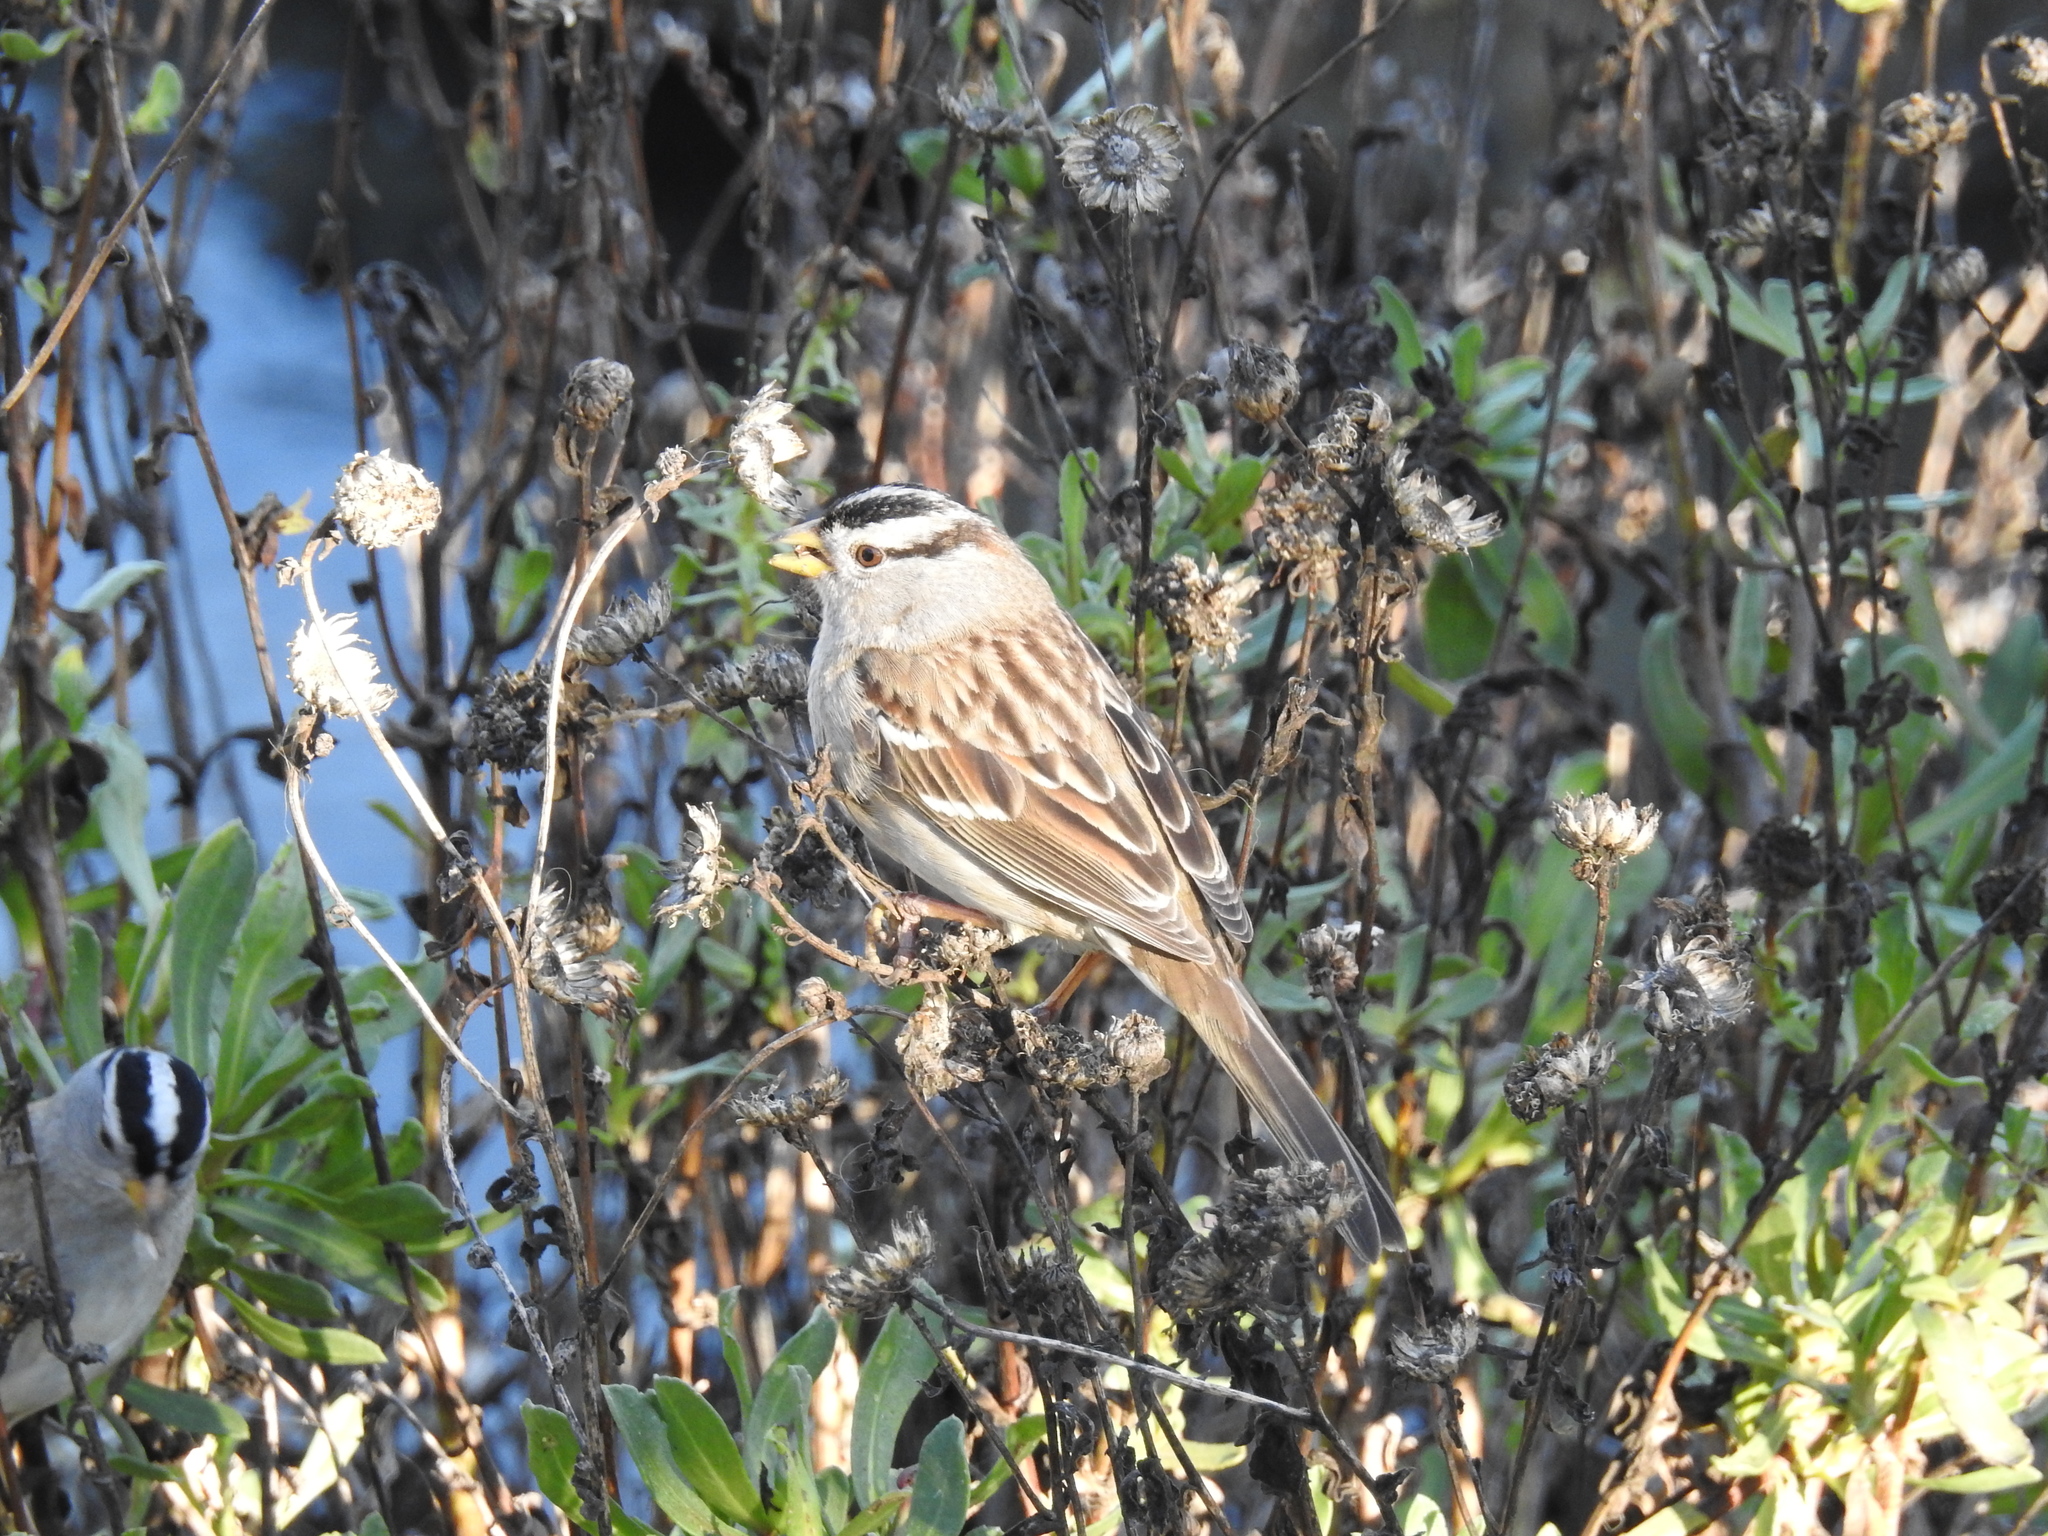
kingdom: Animalia
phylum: Chordata
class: Aves
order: Passeriformes
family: Passerellidae
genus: Zonotrichia
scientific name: Zonotrichia leucophrys
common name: White-crowned sparrow
